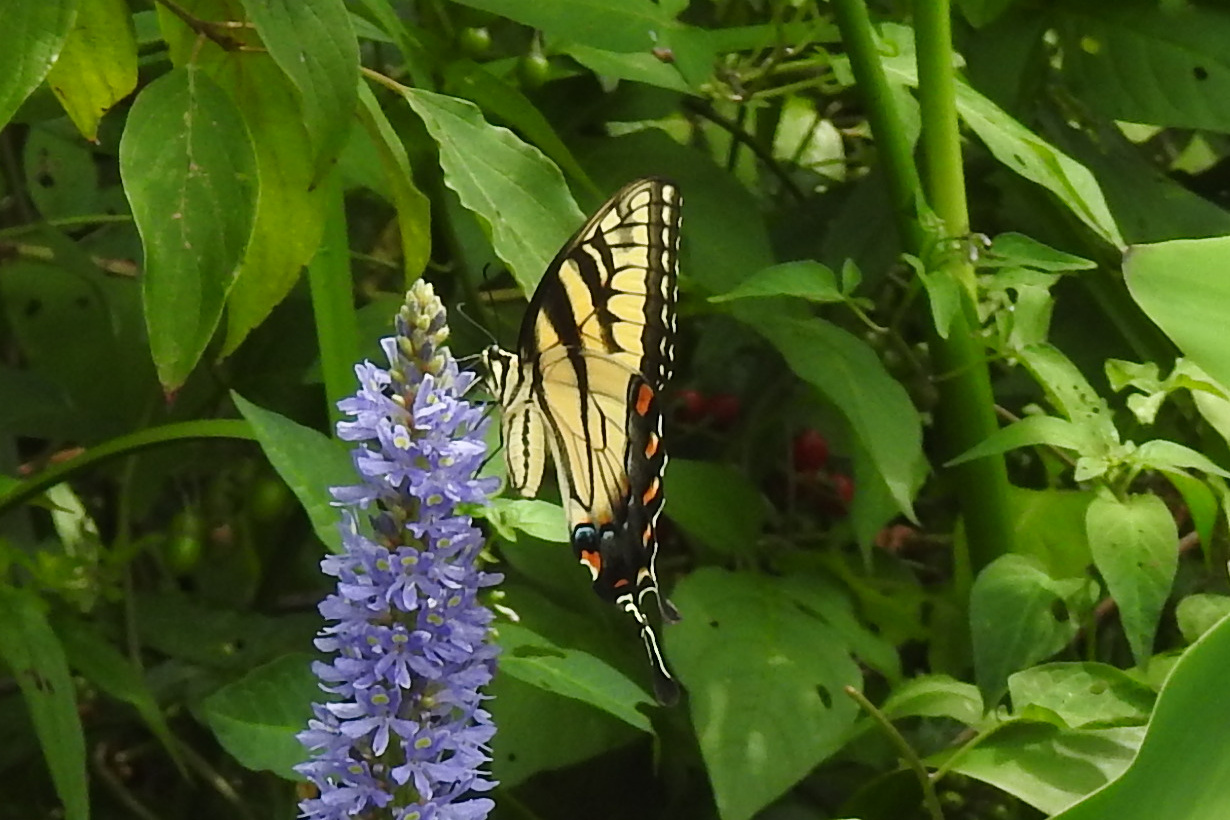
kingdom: Animalia
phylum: Arthropoda
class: Insecta
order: Lepidoptera
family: Papilionidae
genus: Papilio
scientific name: Papilio glaucus
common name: Tiger swallowtail
